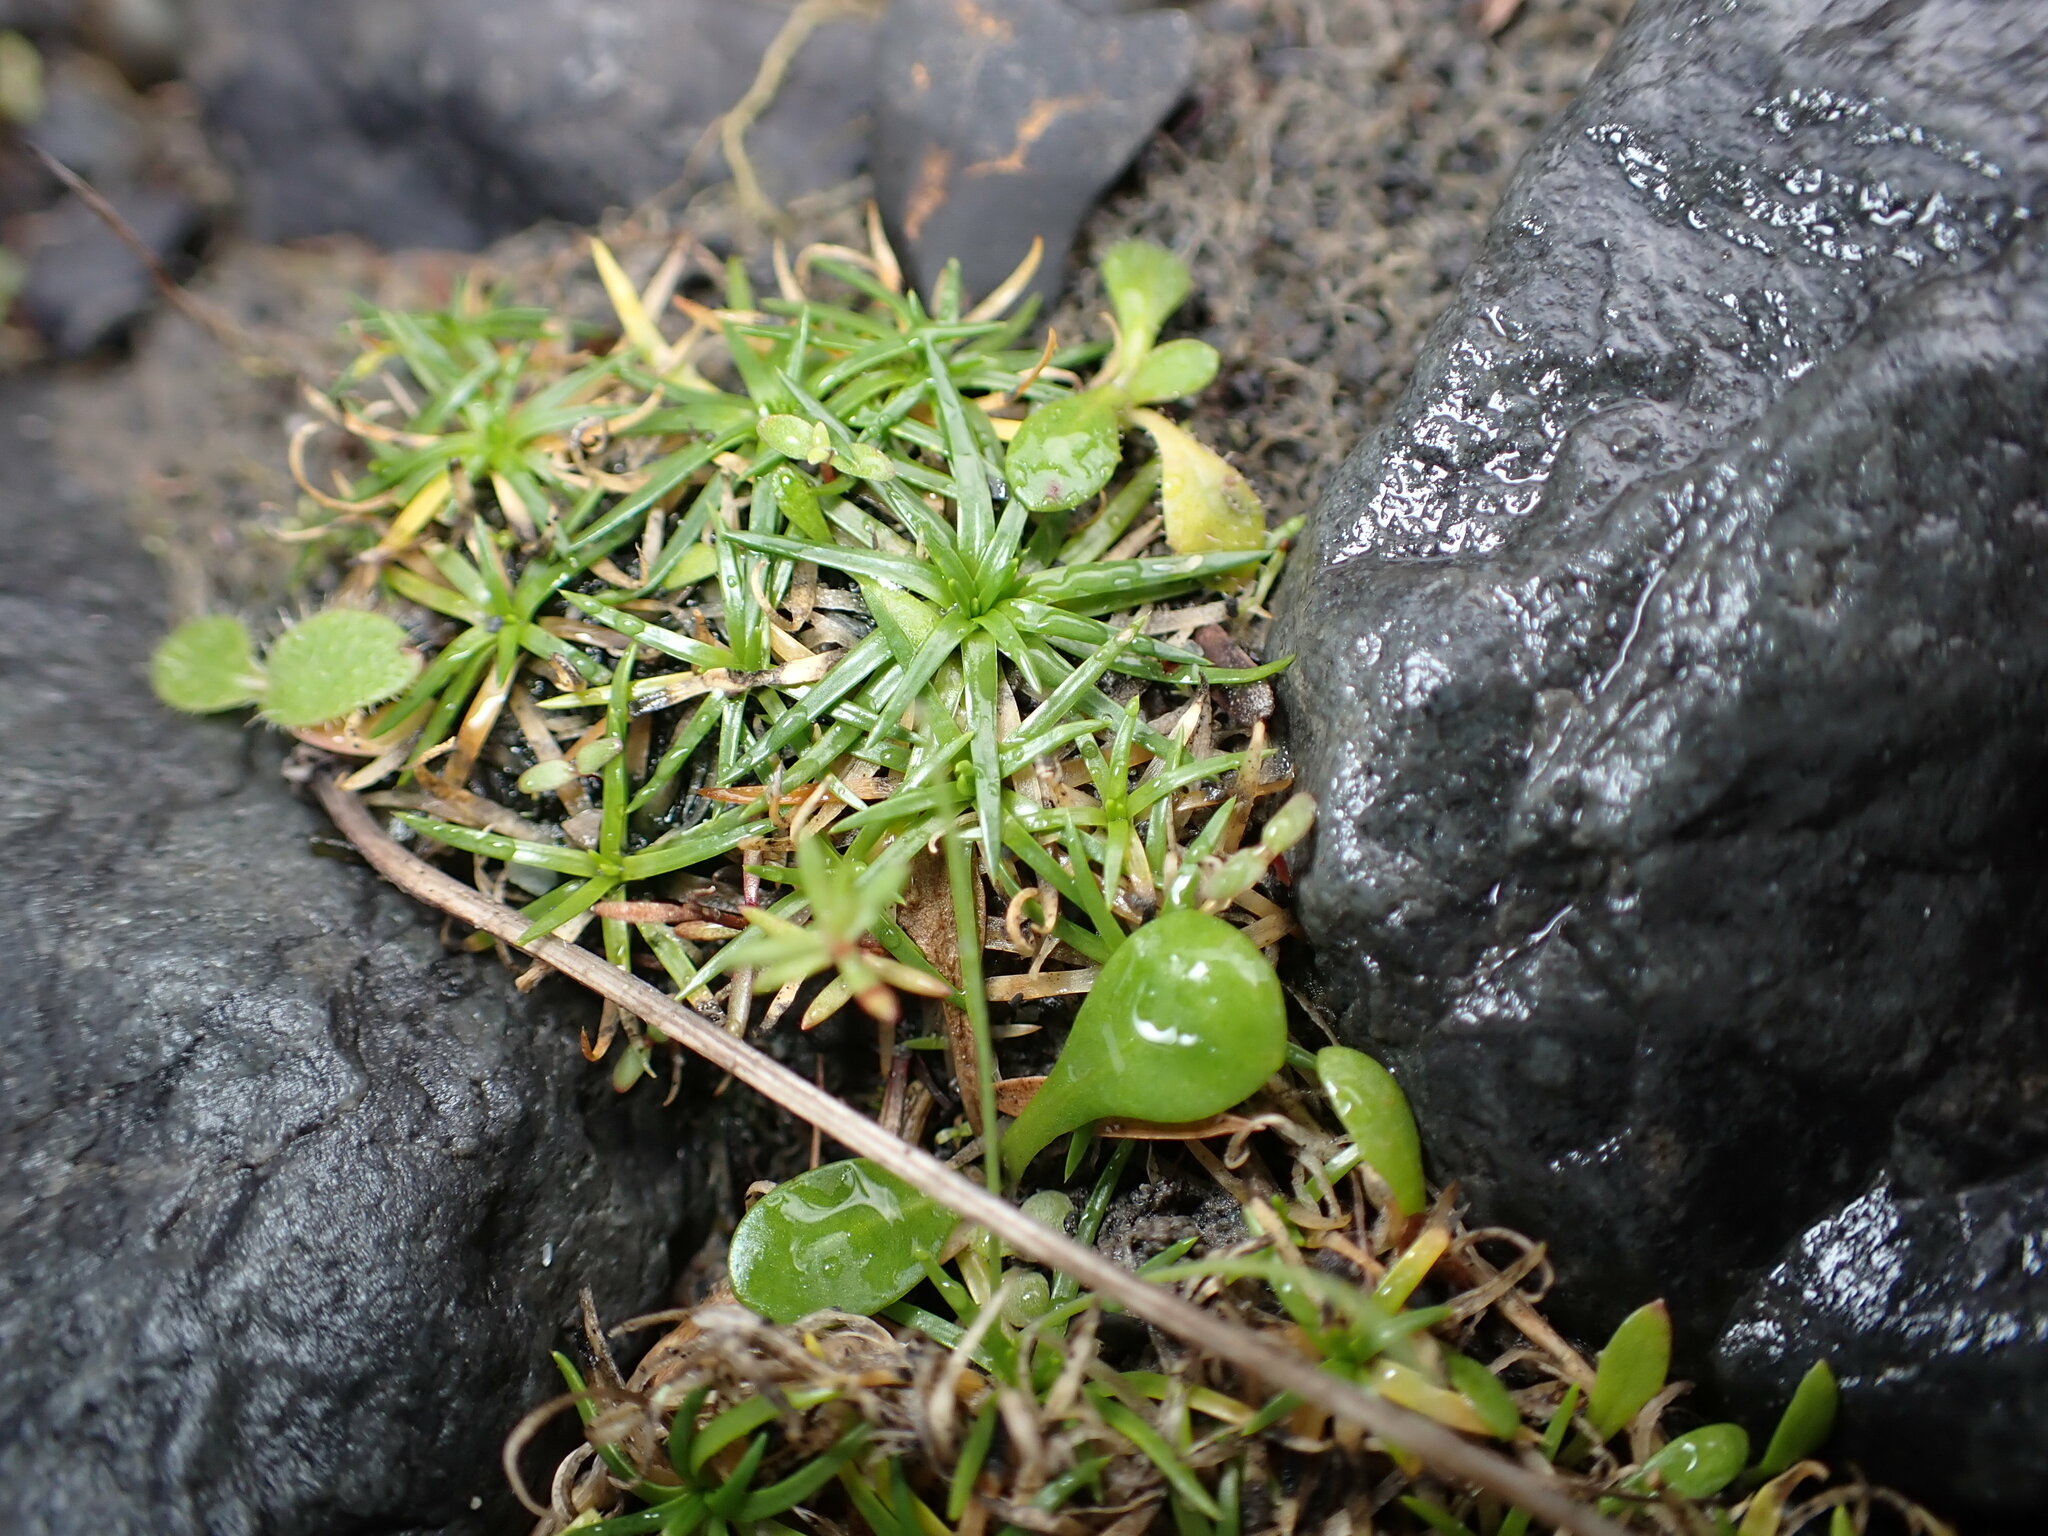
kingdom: Plantae
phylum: Tracheophyta
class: Magnoliopsida
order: Caryophyllales
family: Caryophyllaceae
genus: Sagina
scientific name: Sagina procumbens
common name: Procumbent pearlwort
